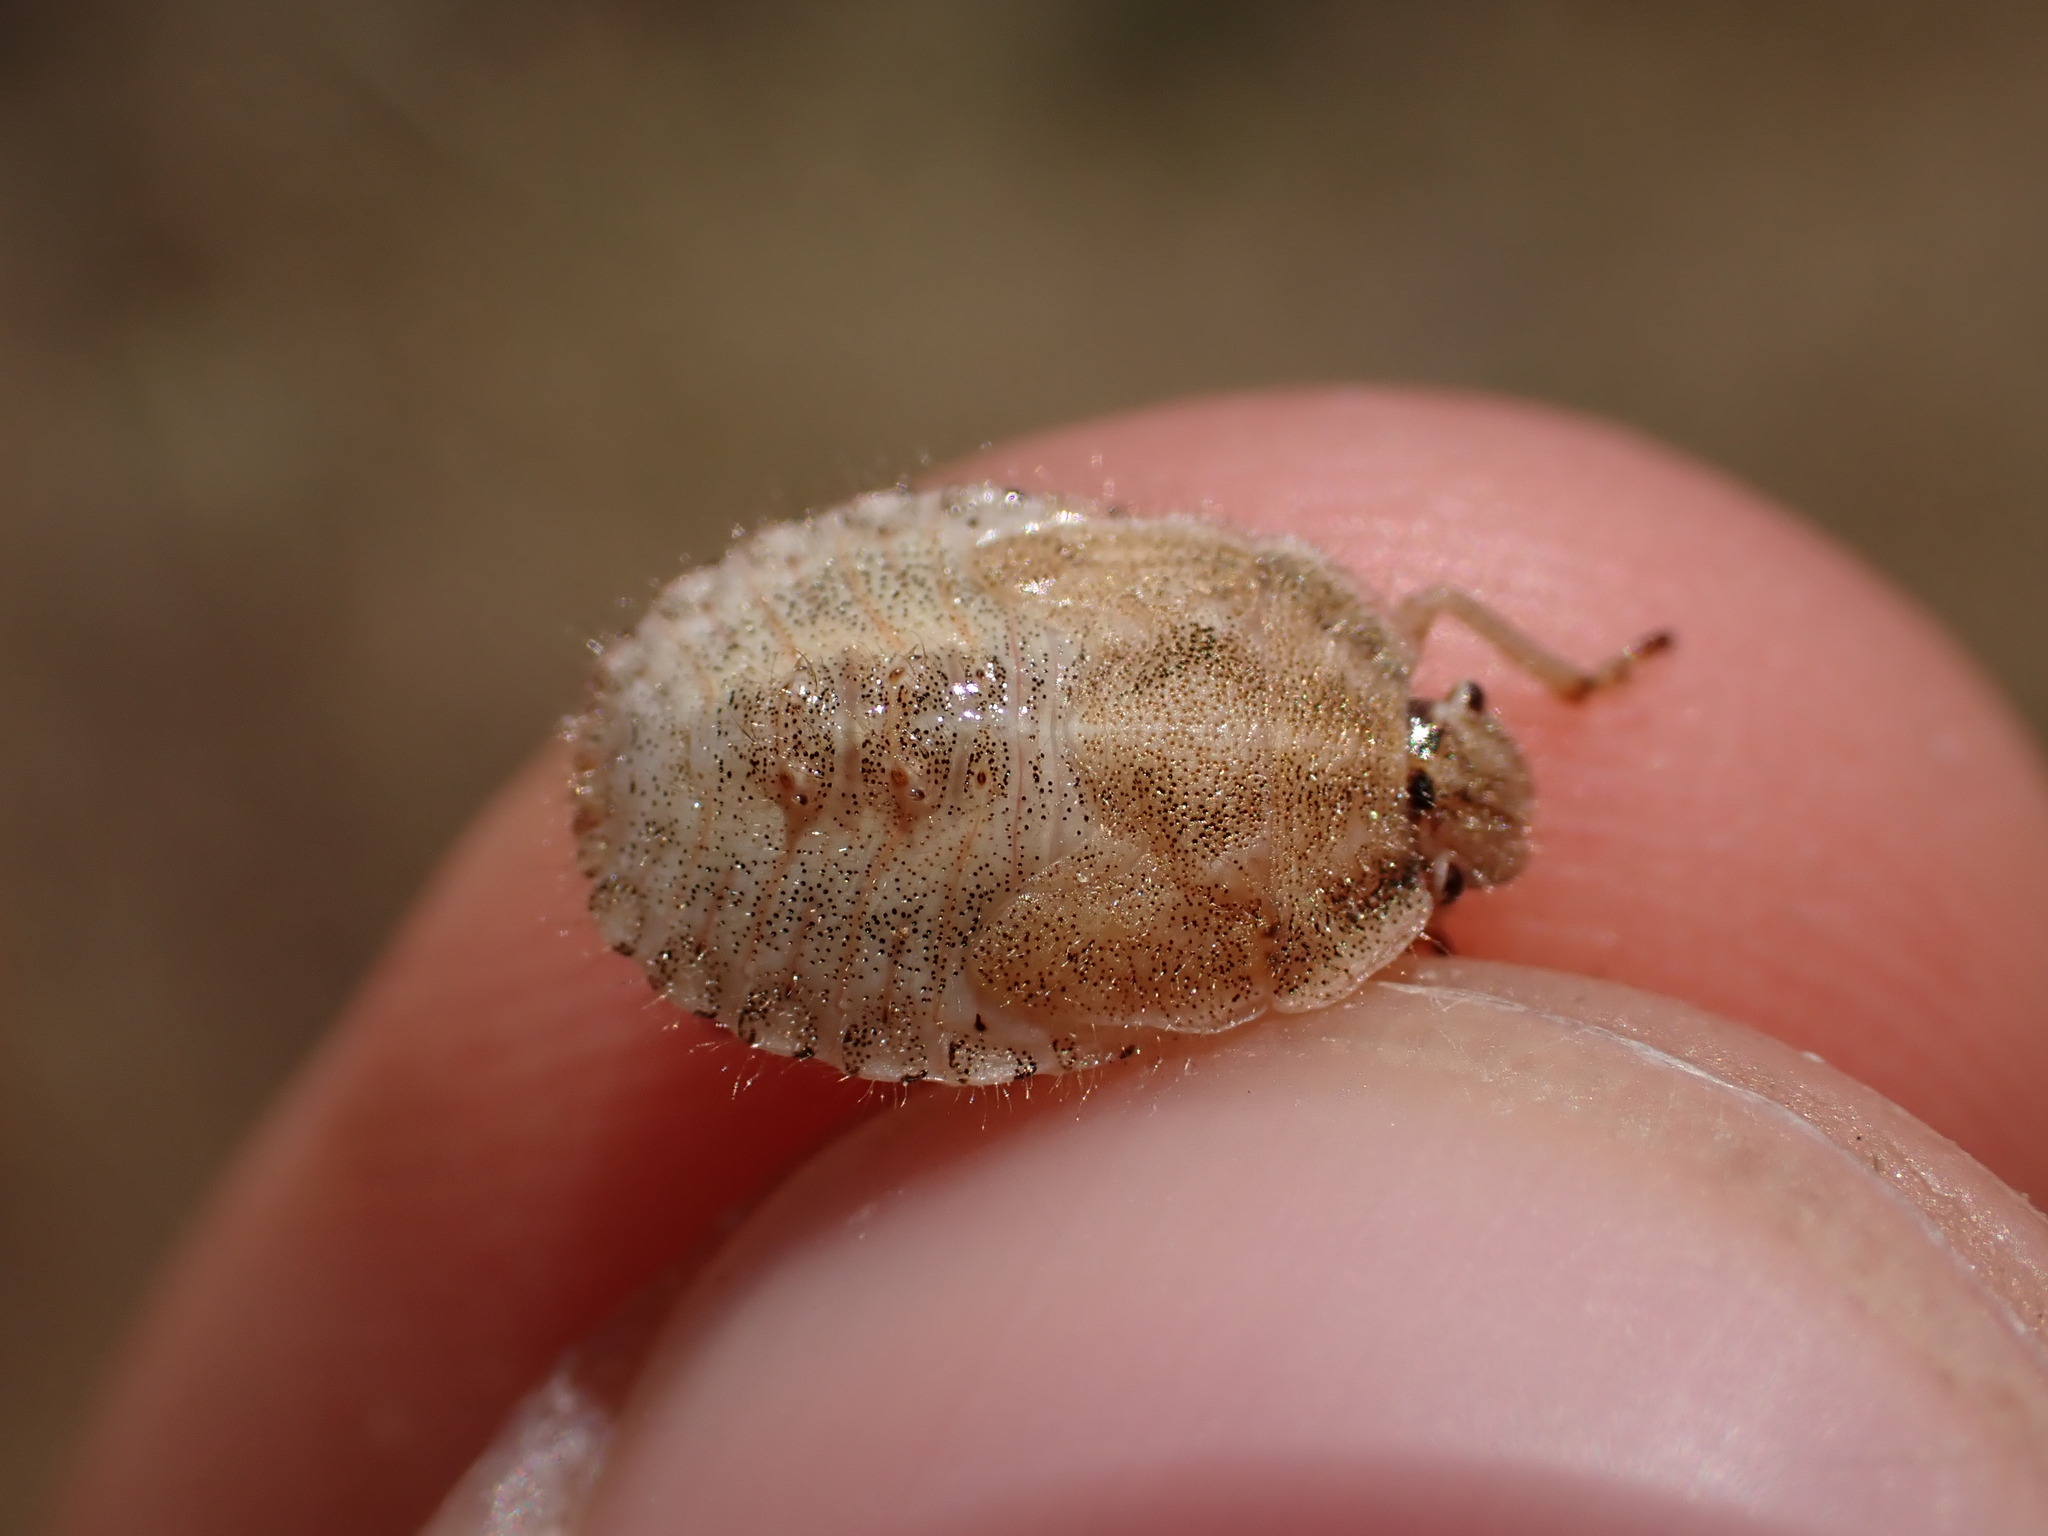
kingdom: Animalia
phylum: Arthropoda
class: Insecta
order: Hemiptera
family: Pentatomidae
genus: Dolycoris
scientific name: Dolycoris baccarum
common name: Sloe bug
